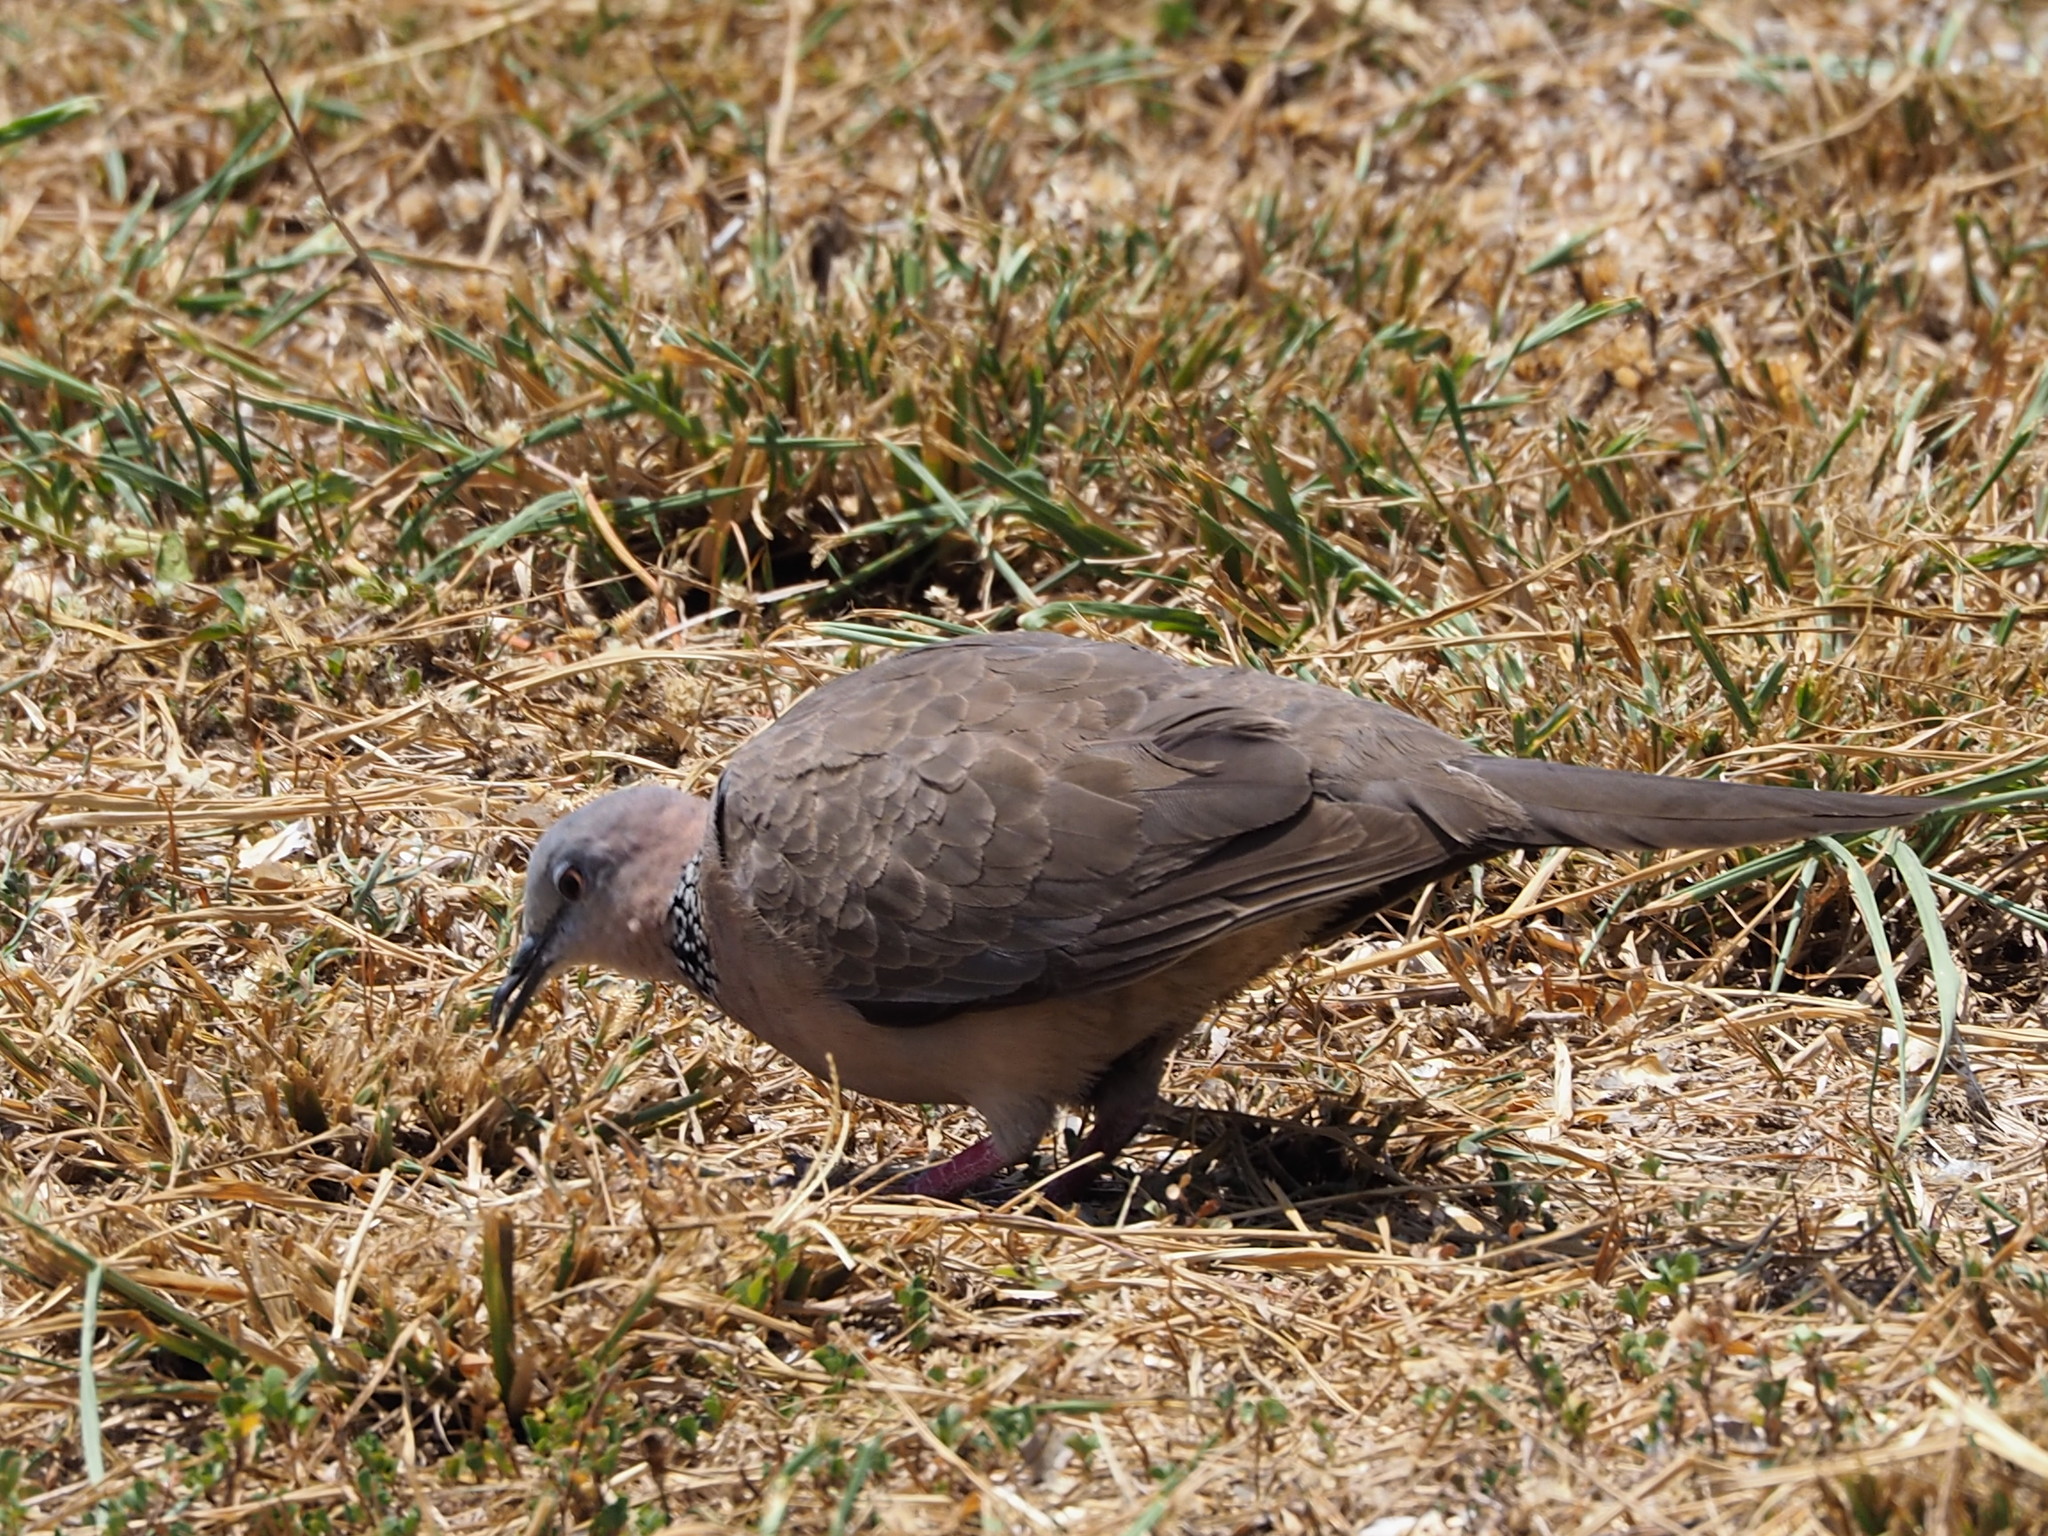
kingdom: Animalia
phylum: Chordata
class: Aves
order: Columbiformes
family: Columbidae
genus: Spilopelia
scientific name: Spilopelia chinensis
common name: Spotted dove
